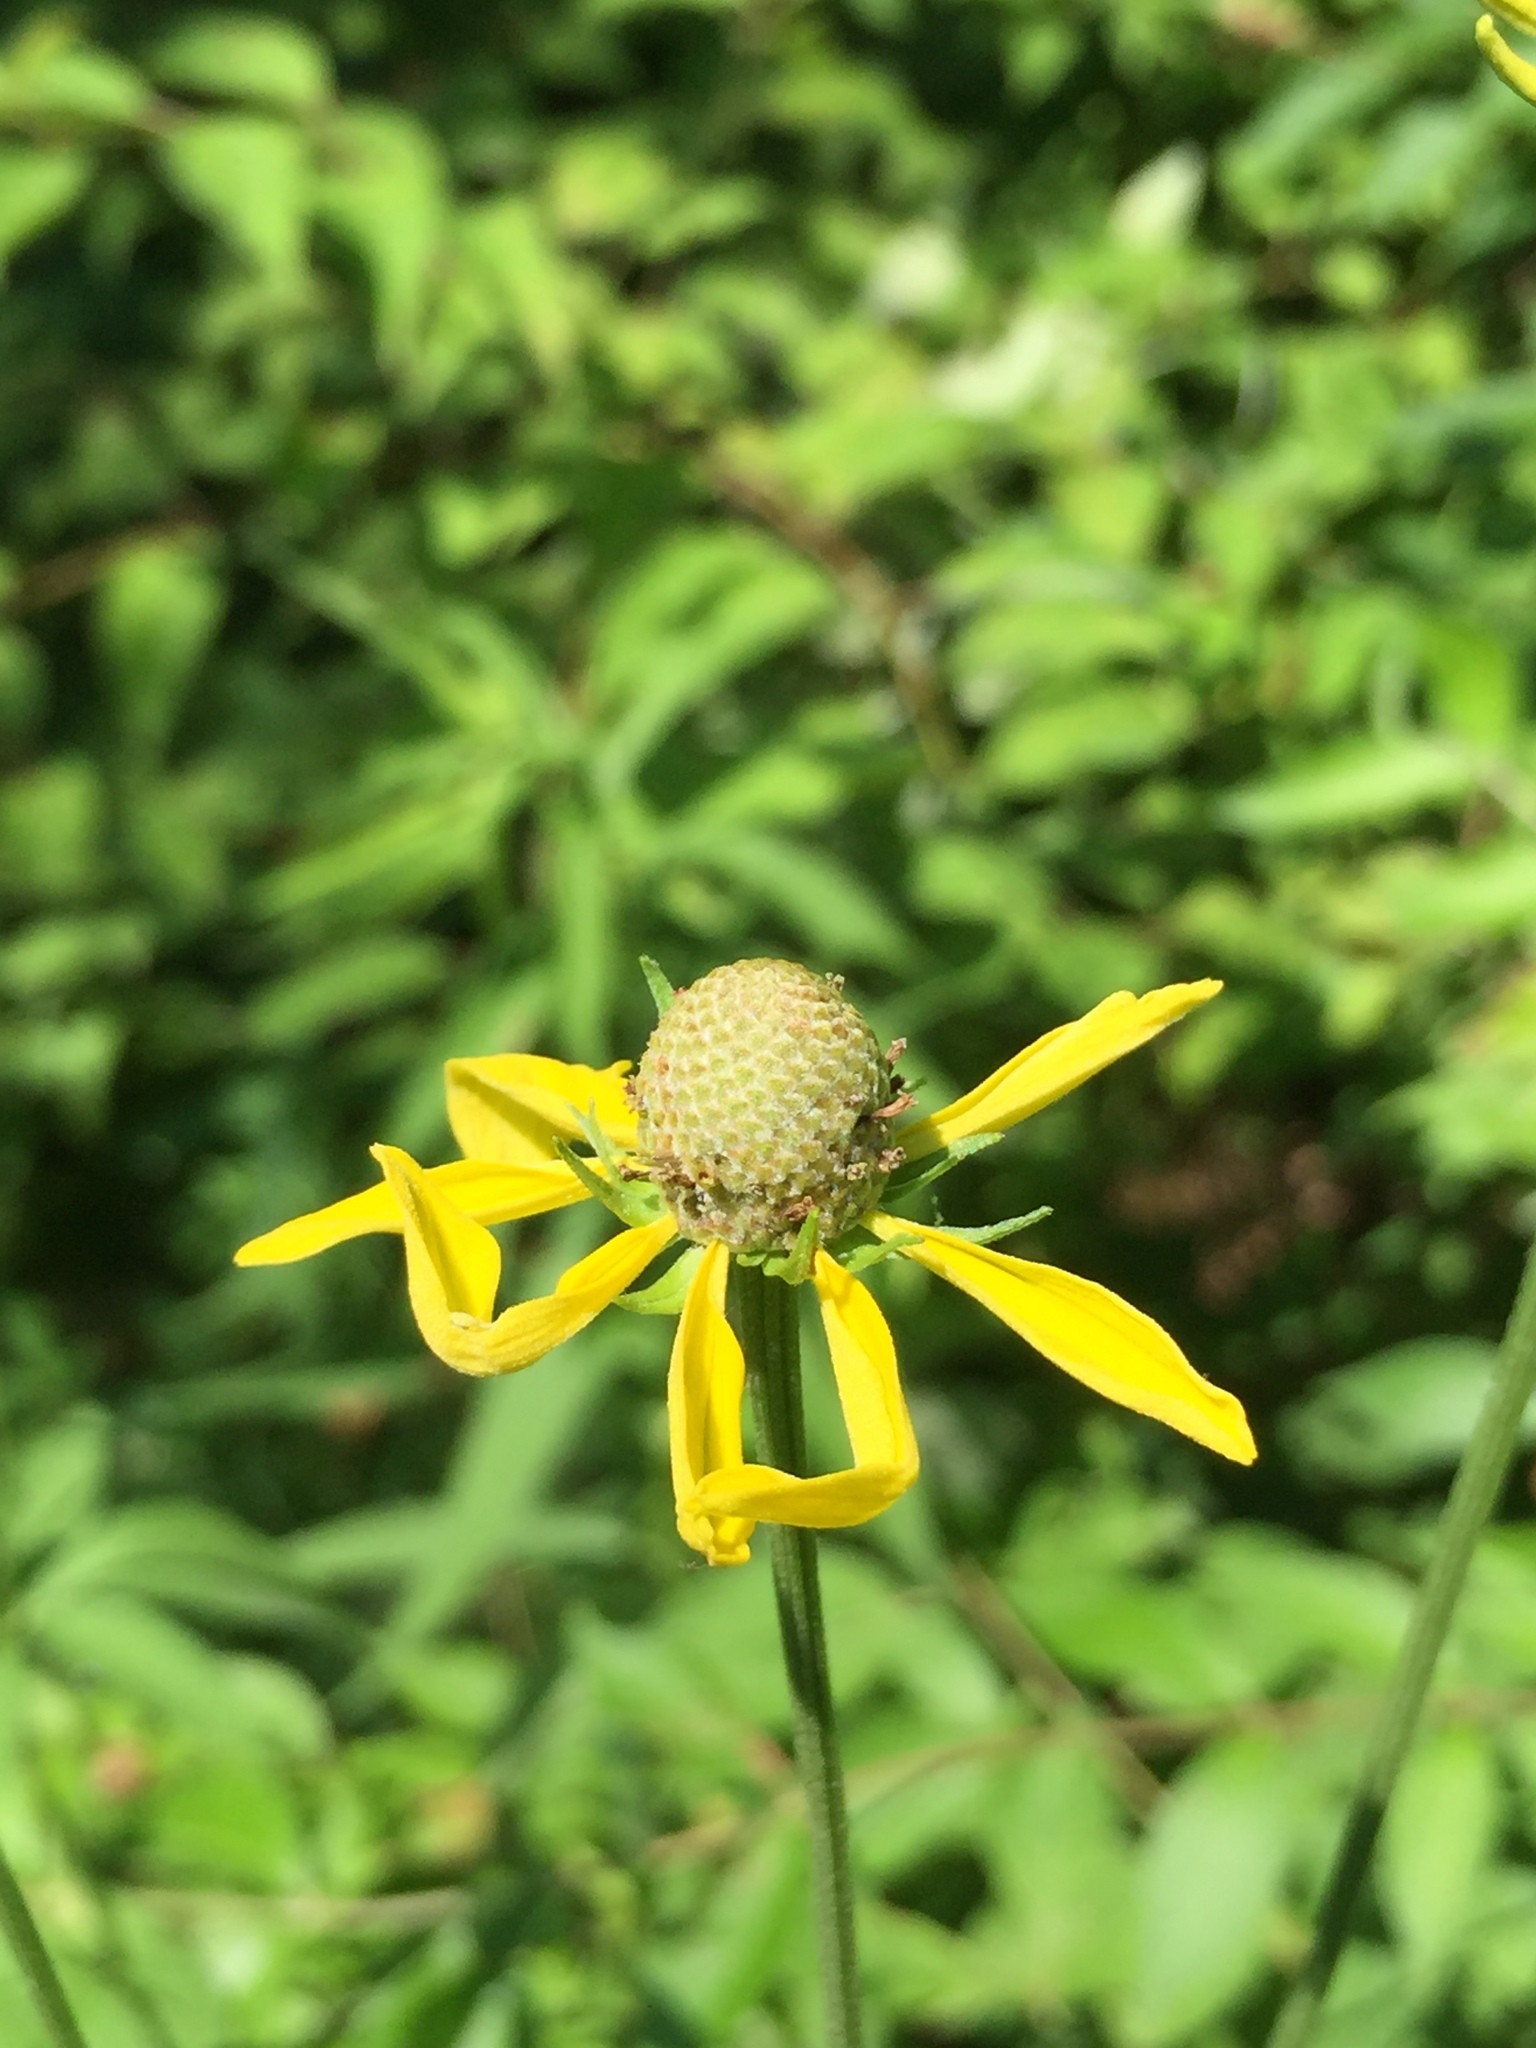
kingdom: Plantae
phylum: Tracheophyta
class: Magnoliopsida
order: Asterales
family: Asteraceae
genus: Ratibida
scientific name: Ratibida pinnata
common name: Drooping prairie-coneflower
